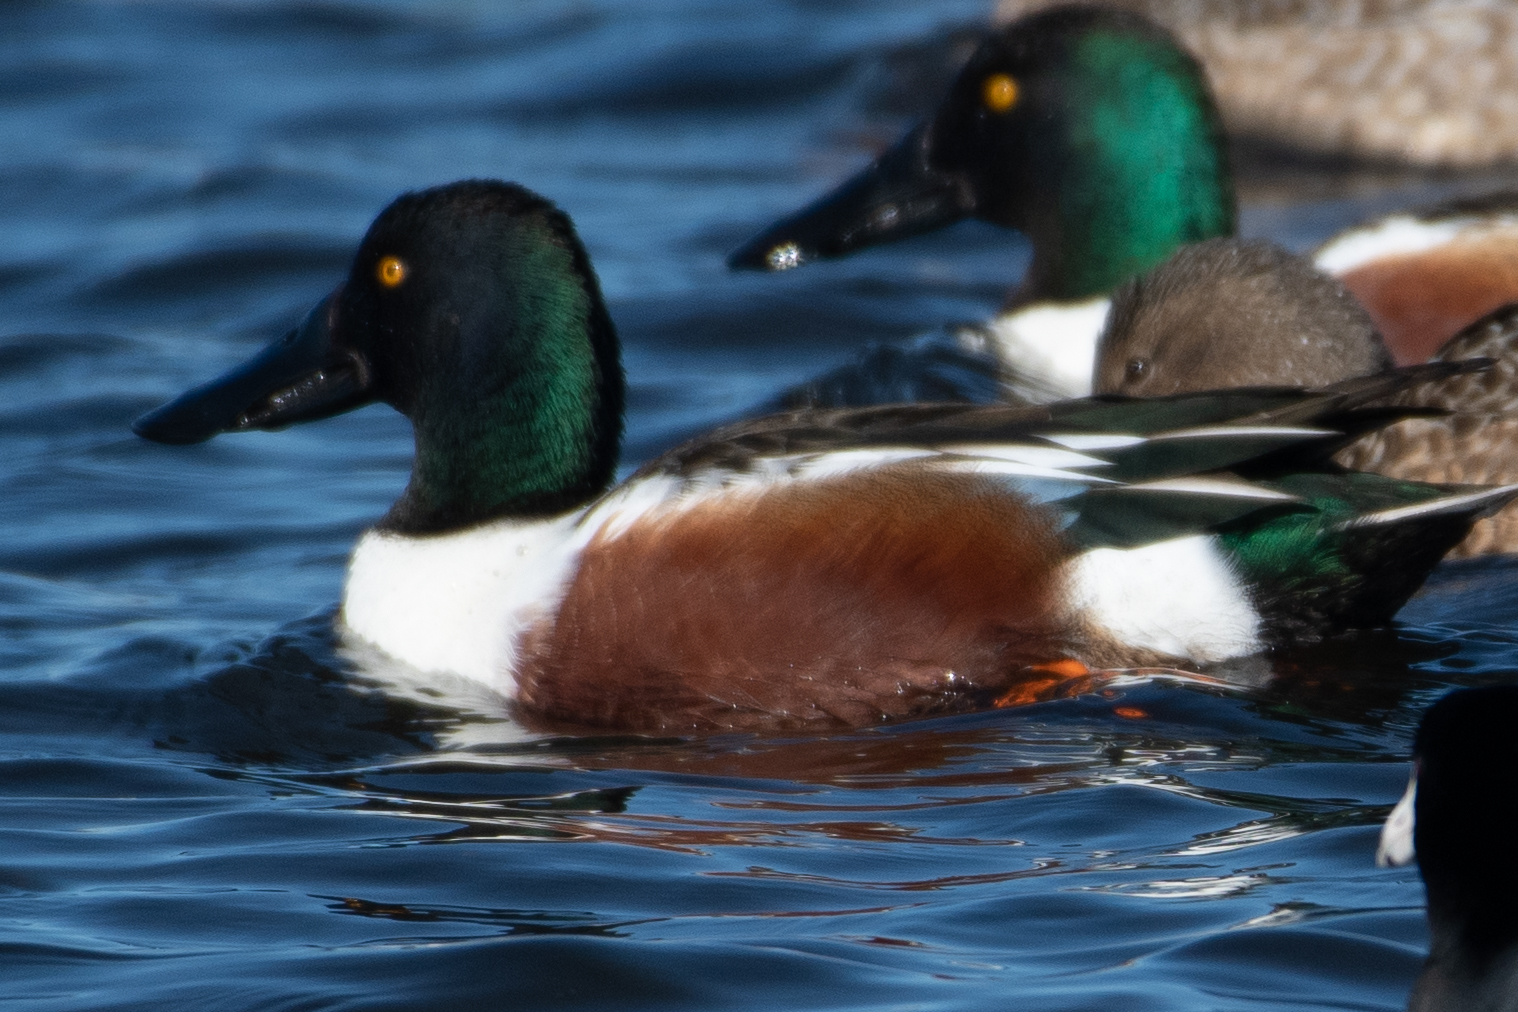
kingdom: Animalia
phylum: Chordata
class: Aves
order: Anseriformes
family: Anatidae
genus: Spatula
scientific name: Spatula clypeata
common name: Northern shoveler
